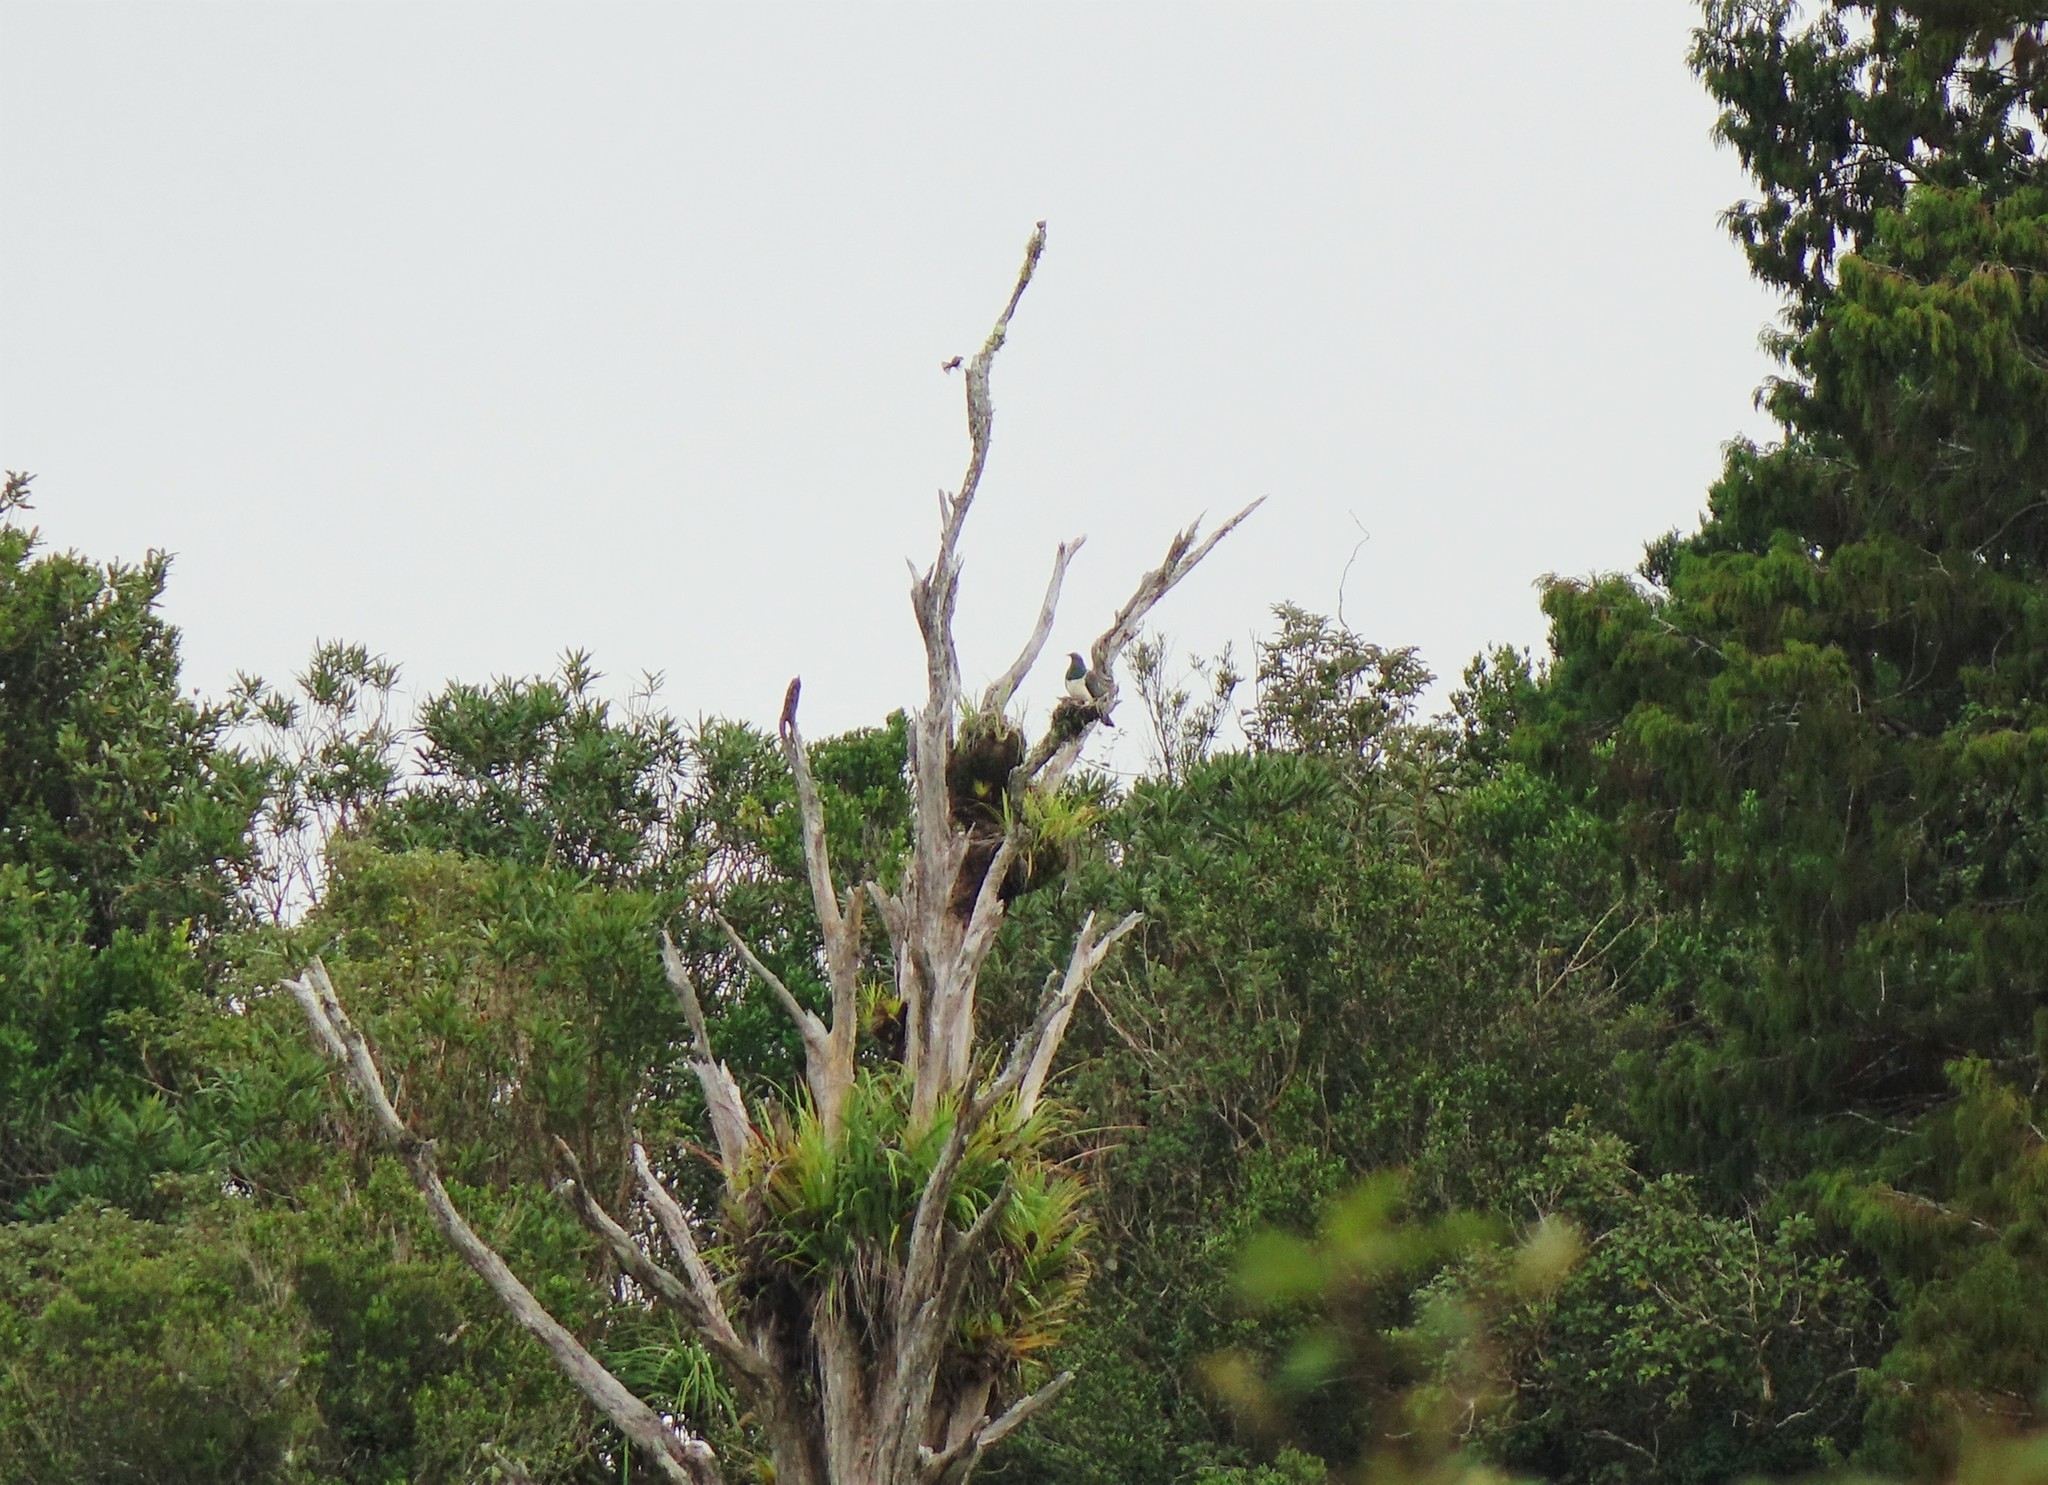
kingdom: Animalia
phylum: Chordata
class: Aves
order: Columbiformes
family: Columbidae
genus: Hemiphaga
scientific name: Hemiphaga novaeseelandiae
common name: New zealand pigeon
